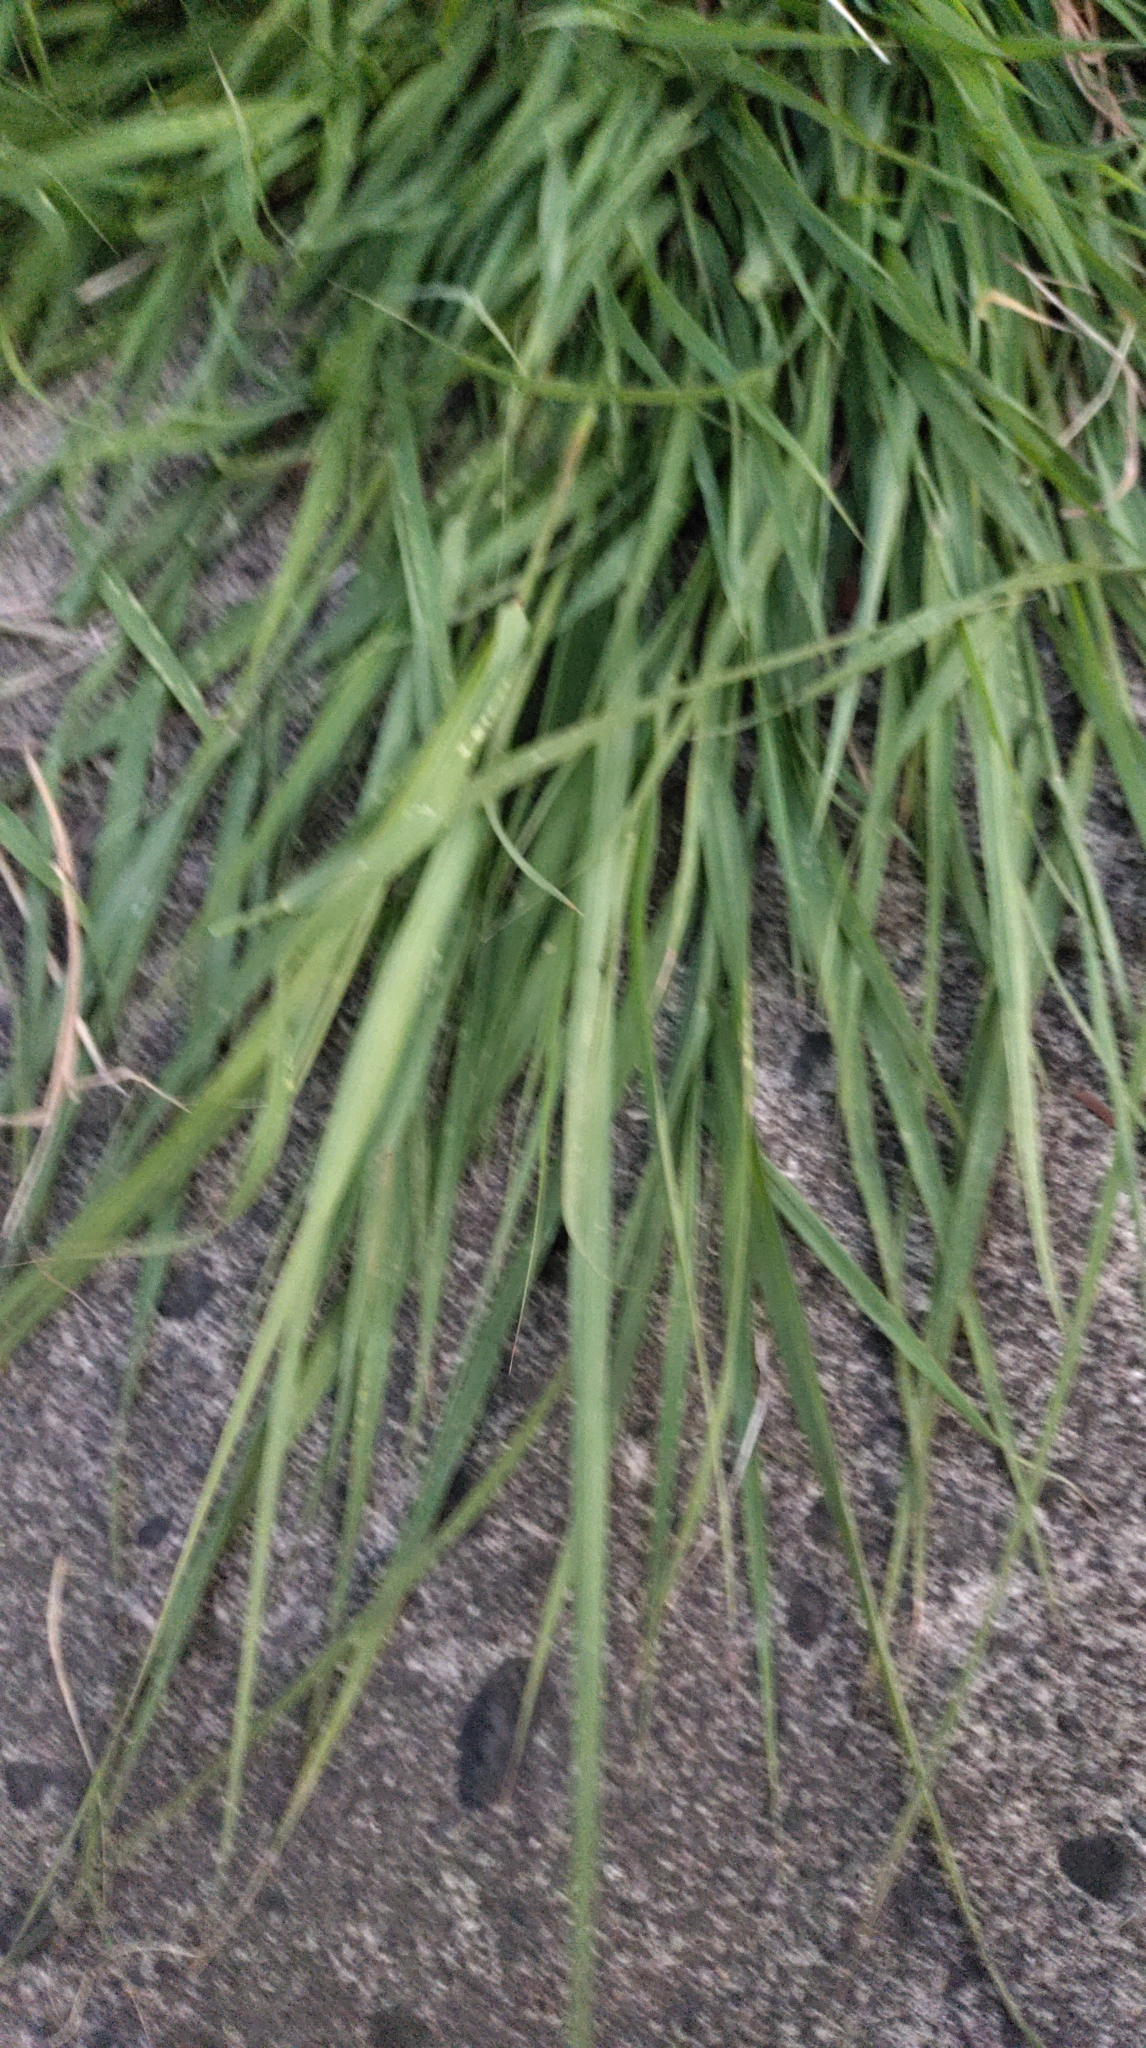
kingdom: Plantae
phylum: Tracheophyta
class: Liliopsida
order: Poales
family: Poaceae
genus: Megathyrsus
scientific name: Megathyrsus maximus
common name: Guineagrass
